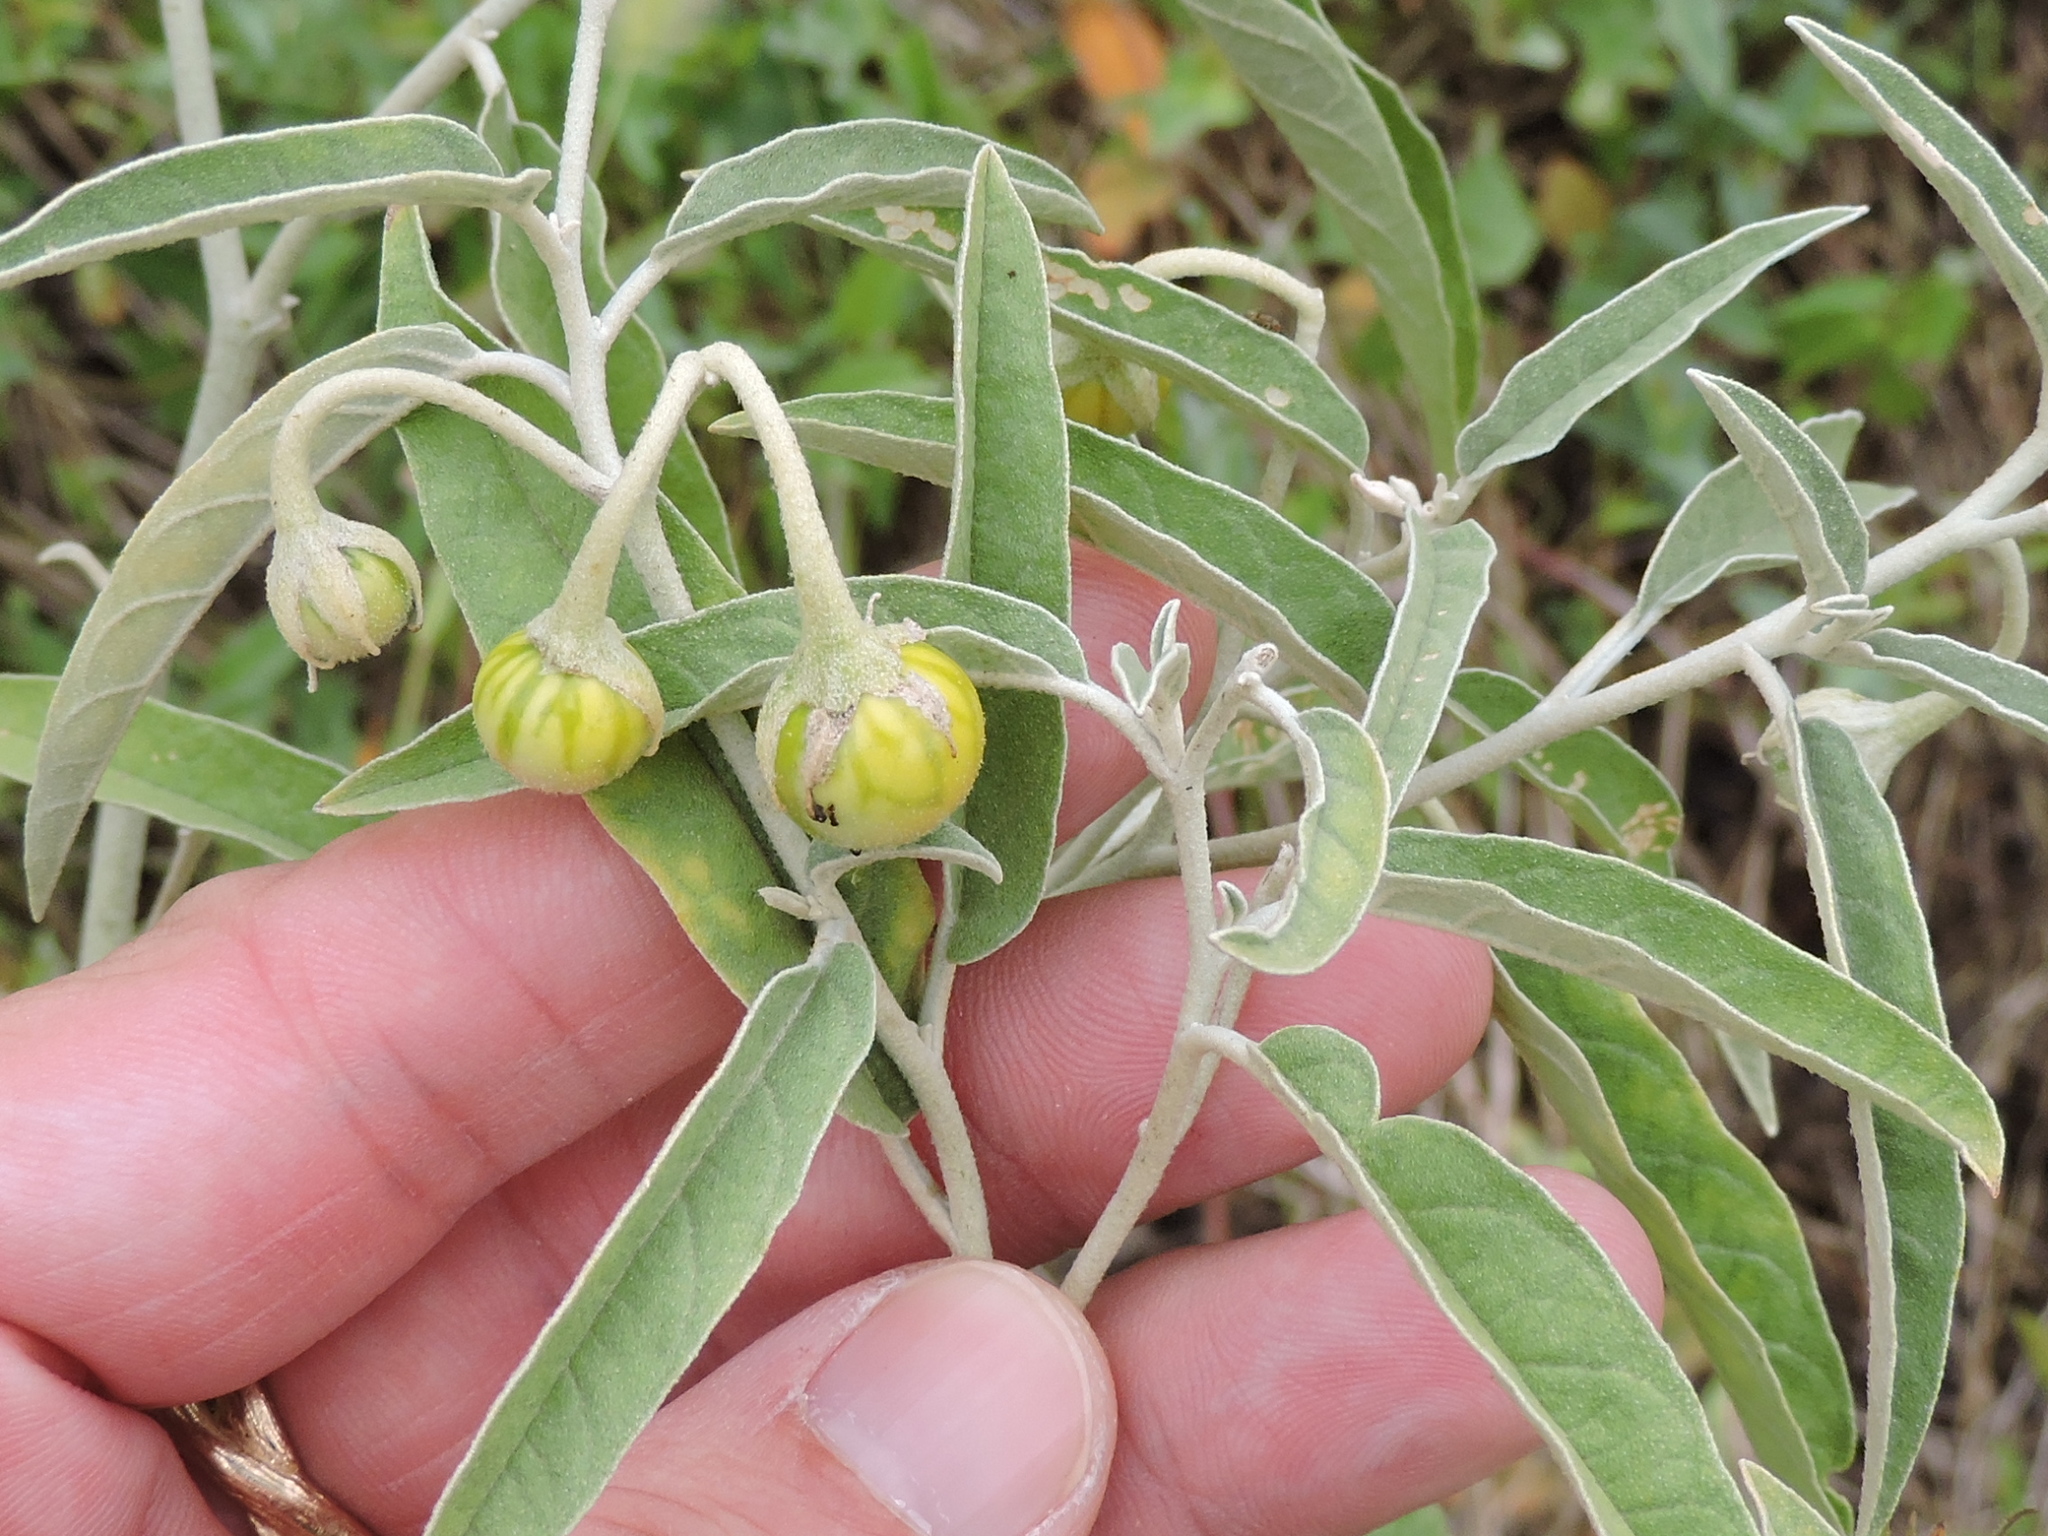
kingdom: Plantae
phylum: Tracheophyta
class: Magnoliopsida
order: Solanales
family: Solanaceae
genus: Solanum
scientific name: Solanum elaeagnifolium
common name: Silverleaf nightshade
